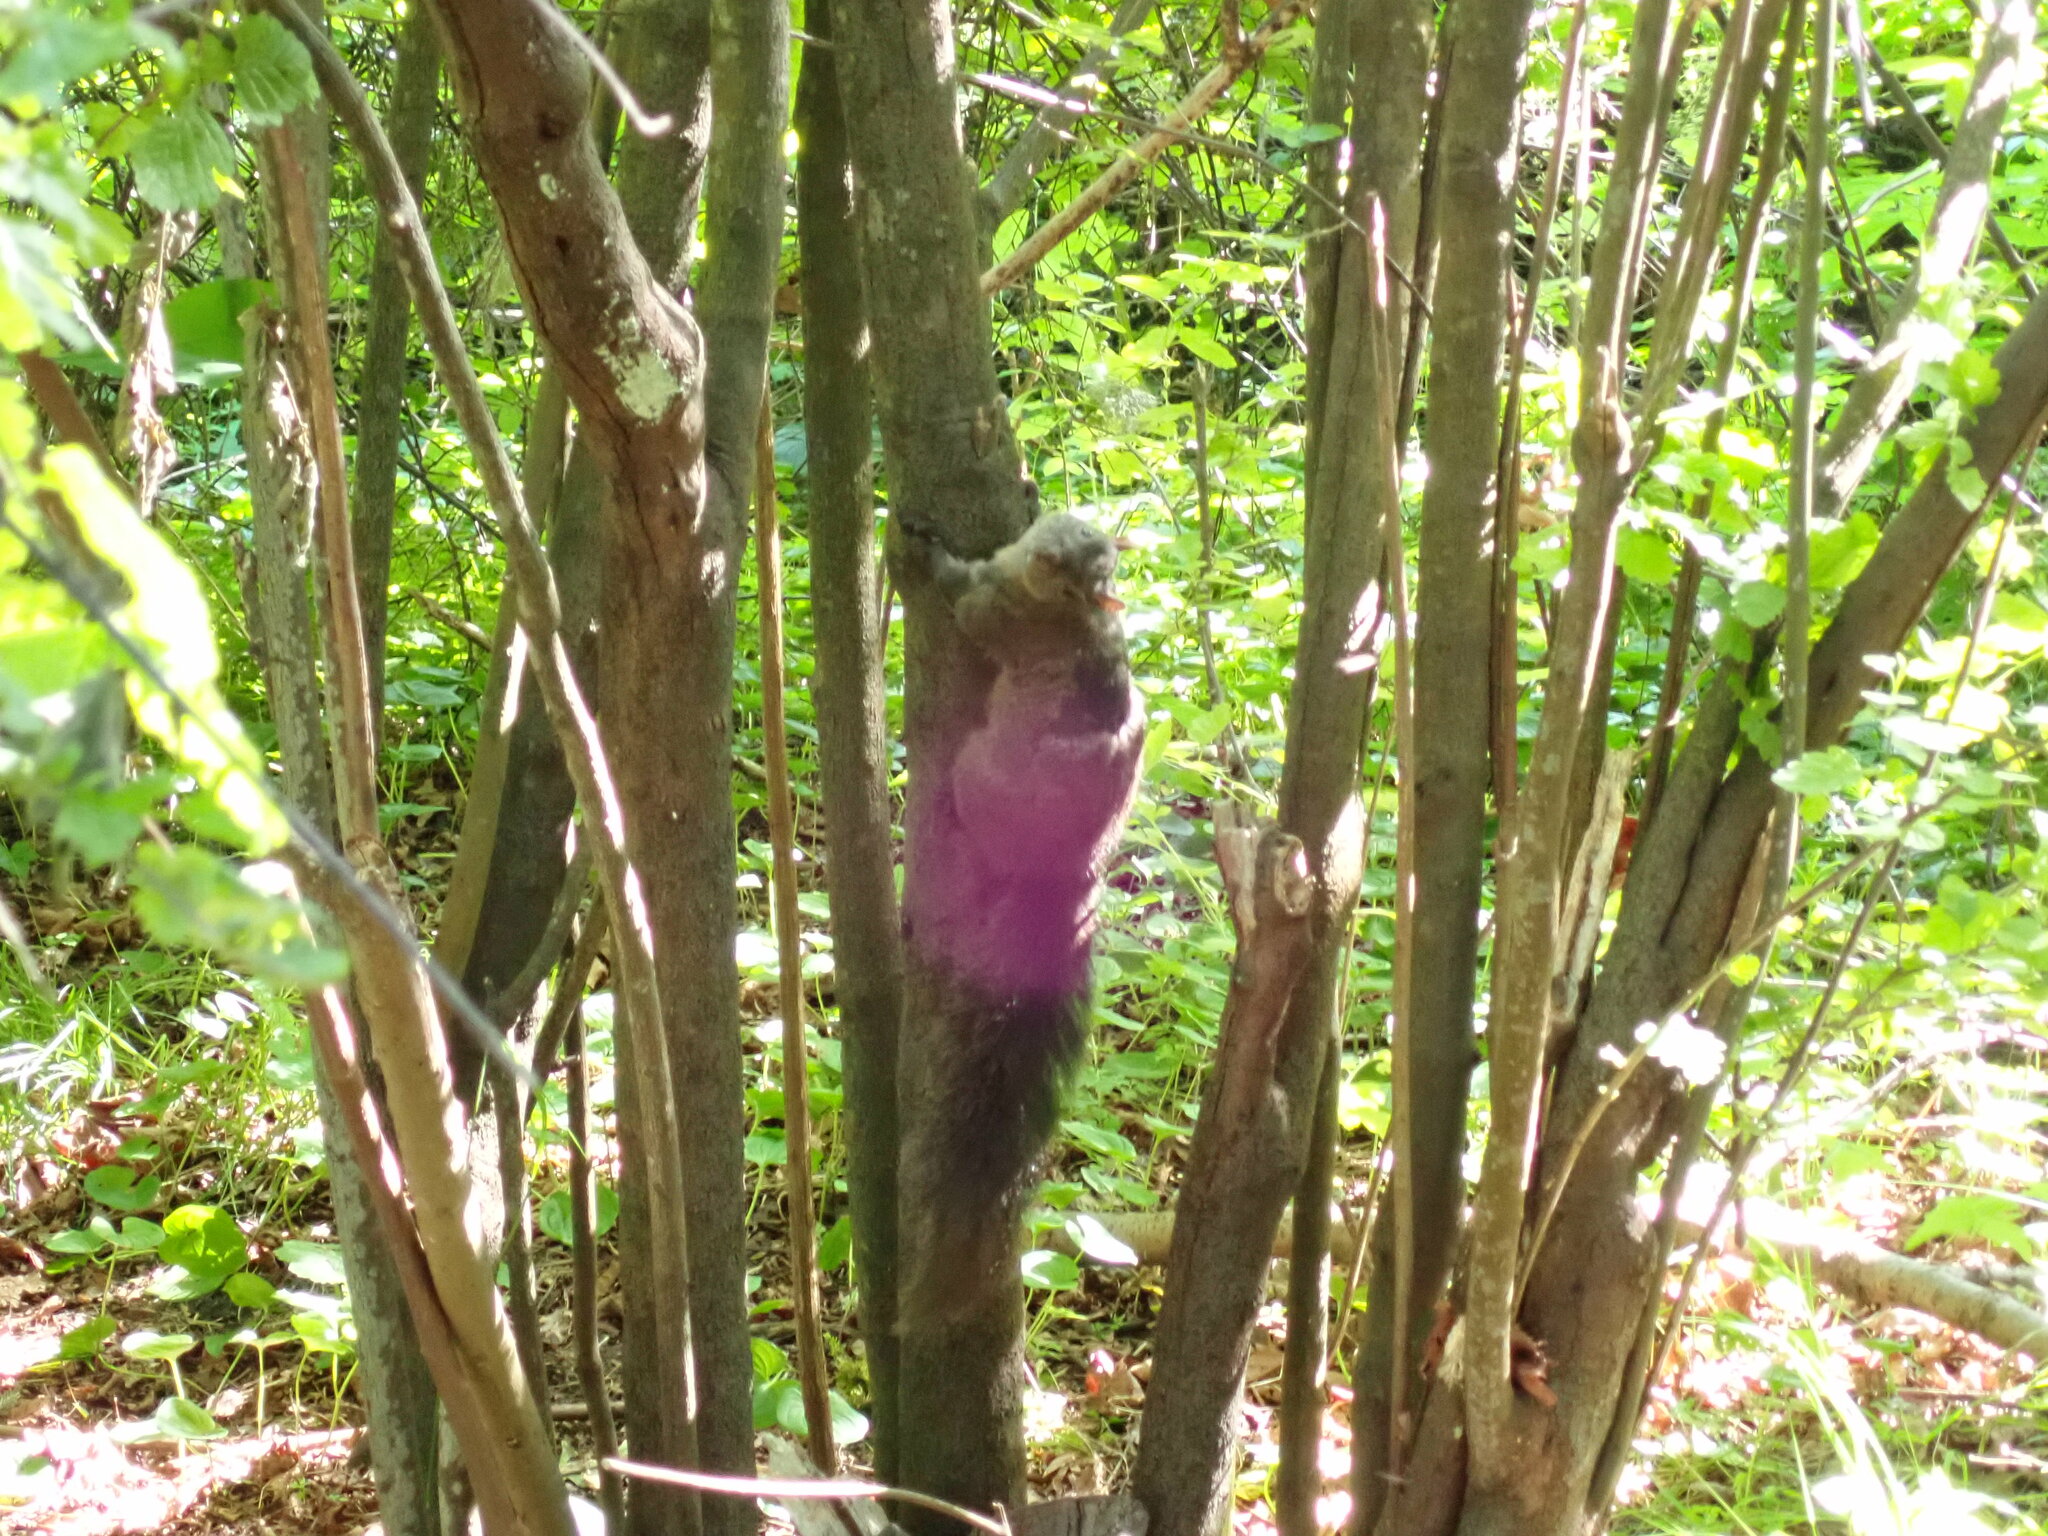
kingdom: Animalia
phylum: Chordata
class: Mammalia
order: Rodentia
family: Sciuridae
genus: Sciurus
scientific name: Sciurus carolinensis
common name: Eastern gray squirrel
